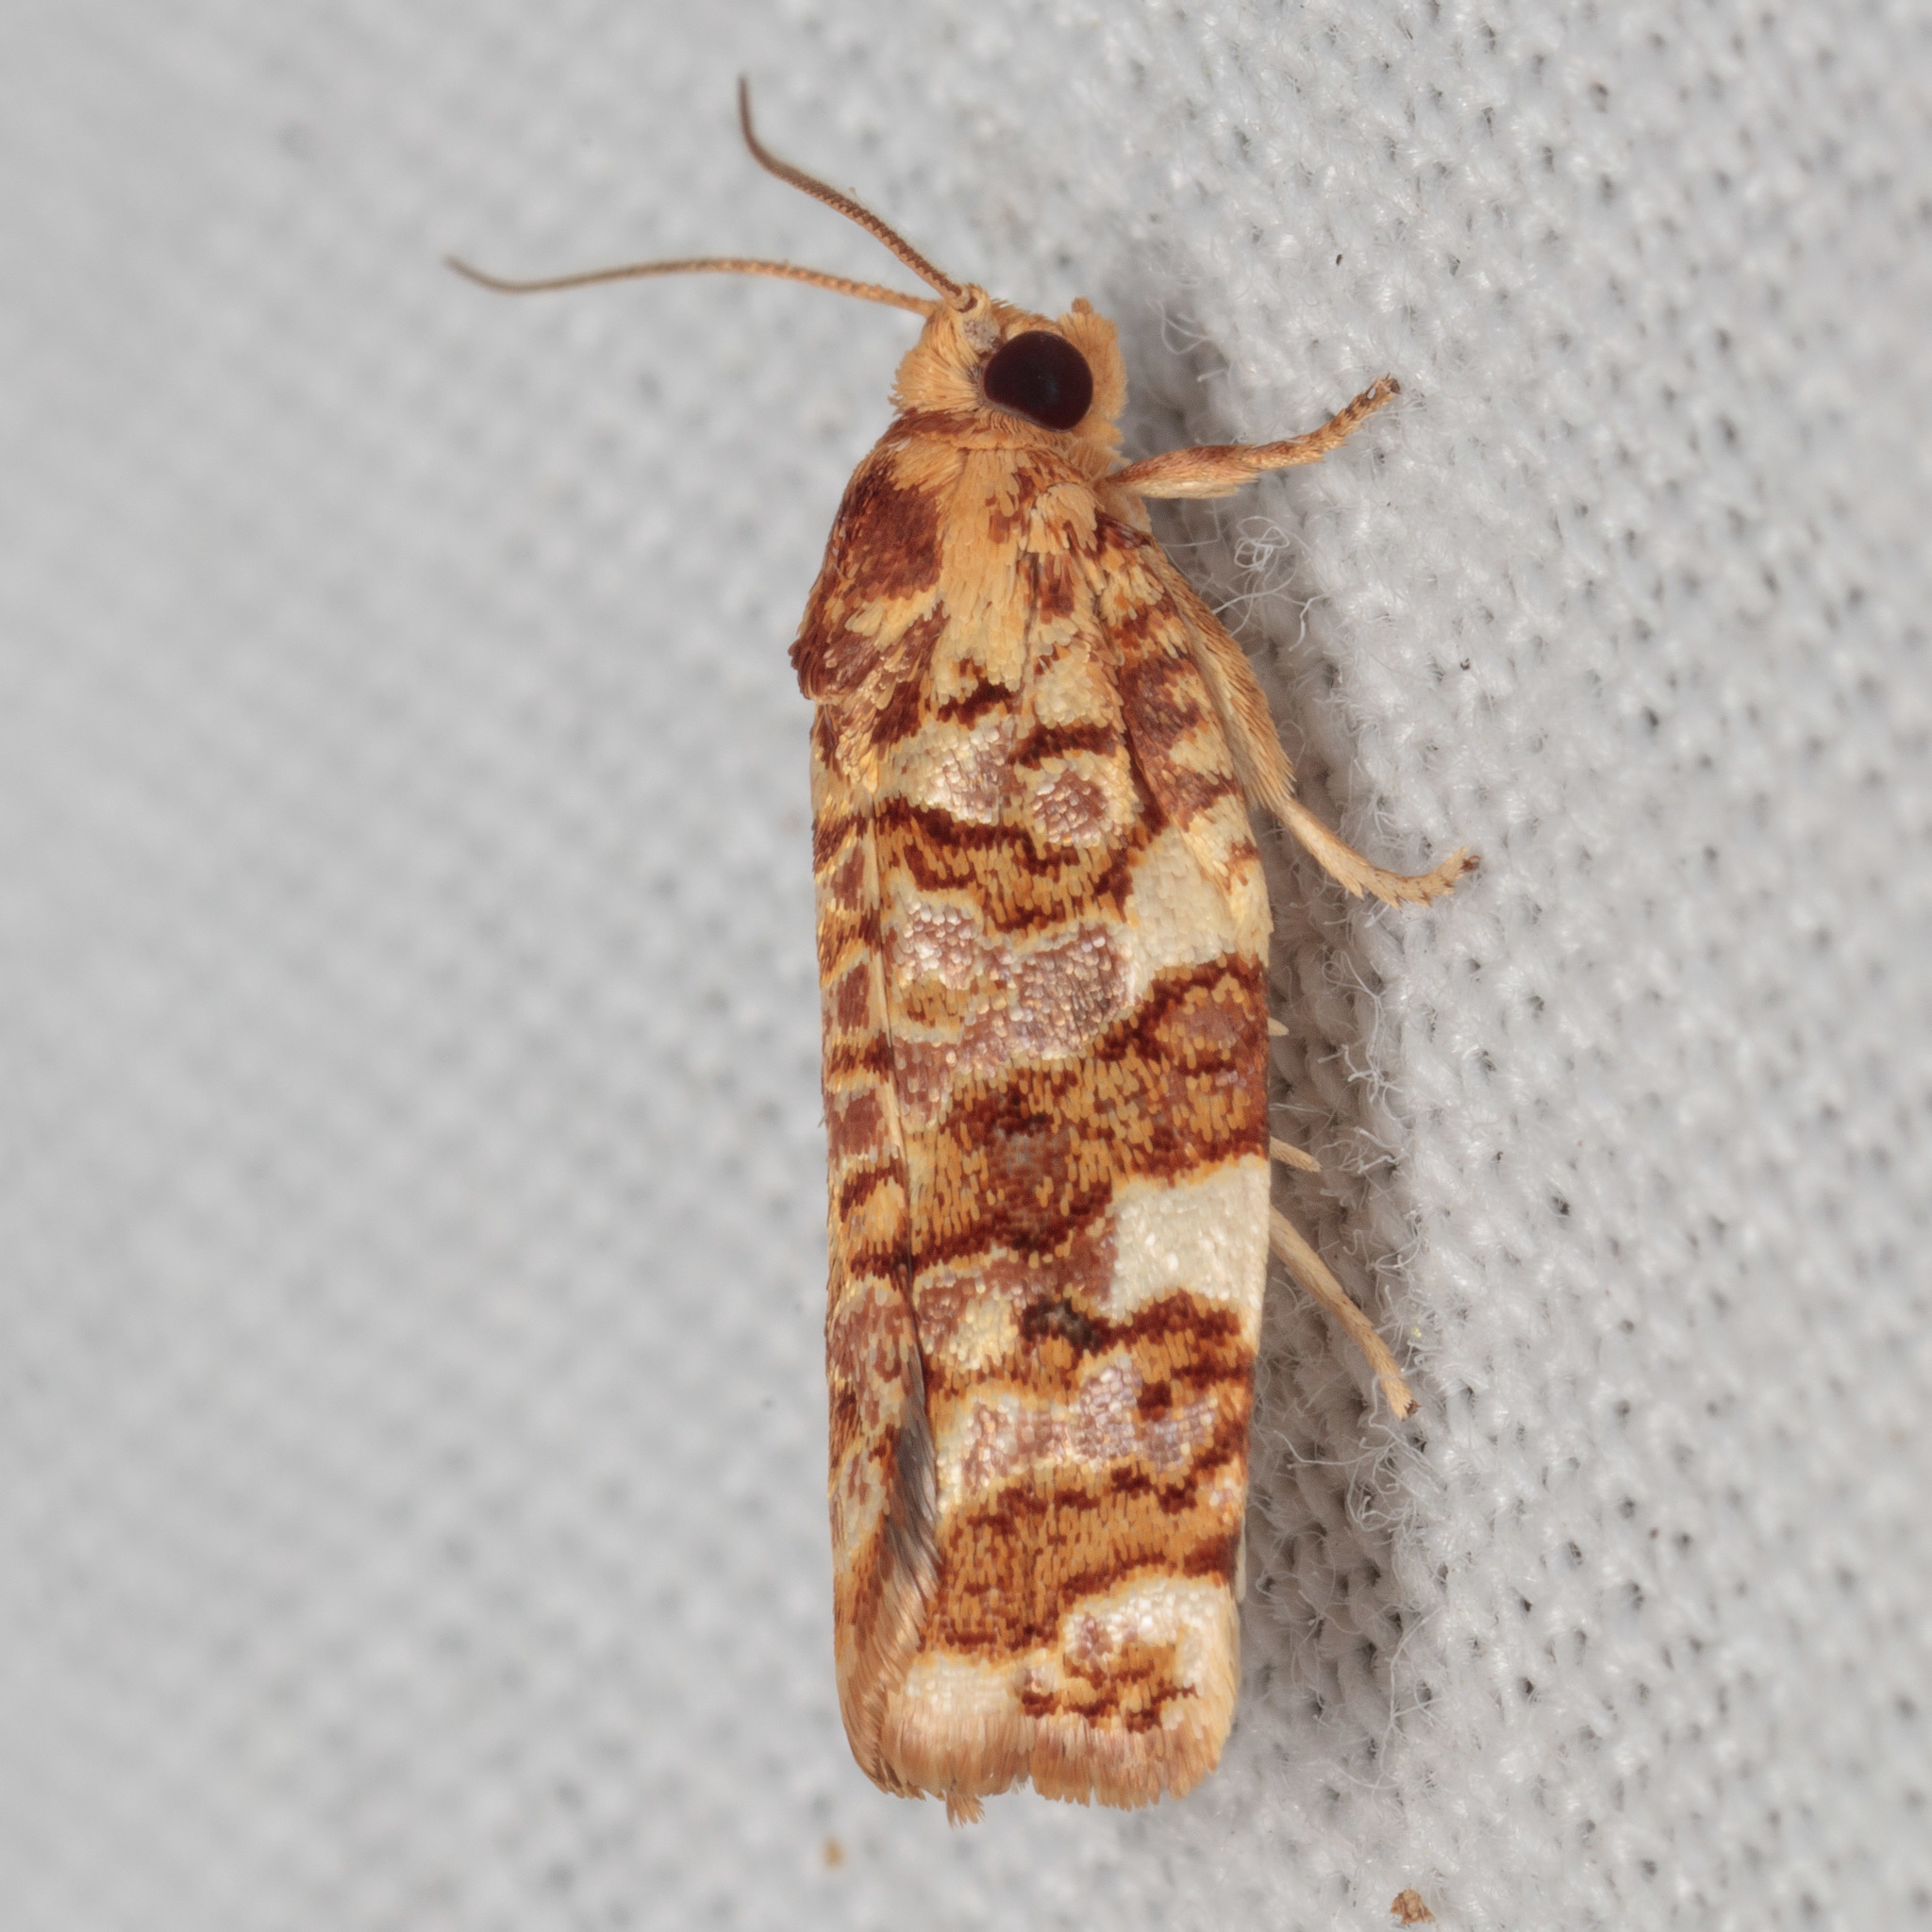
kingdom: Animalia
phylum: Arthropoda
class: Insecta
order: Lepidoptera
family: Tortricidae
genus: Archips
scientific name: Archips argyrospila
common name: Fruit-tree leafroller moth
